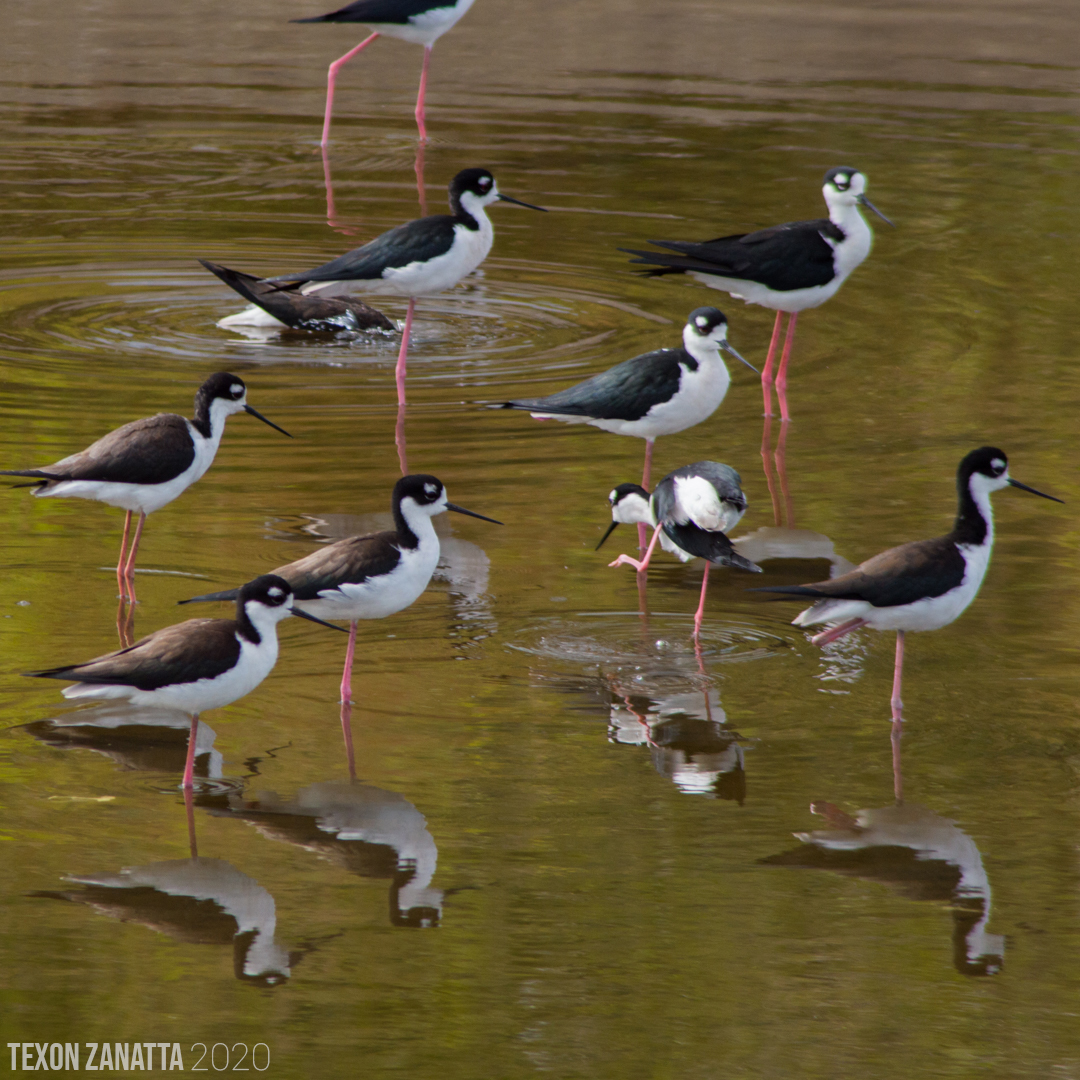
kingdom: Animalia
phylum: Chordata
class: Aves
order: Charadriiformes
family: Recurvirostridae
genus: Himantopus
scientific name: Himantopus mexicanus
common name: Black-necked stilt
